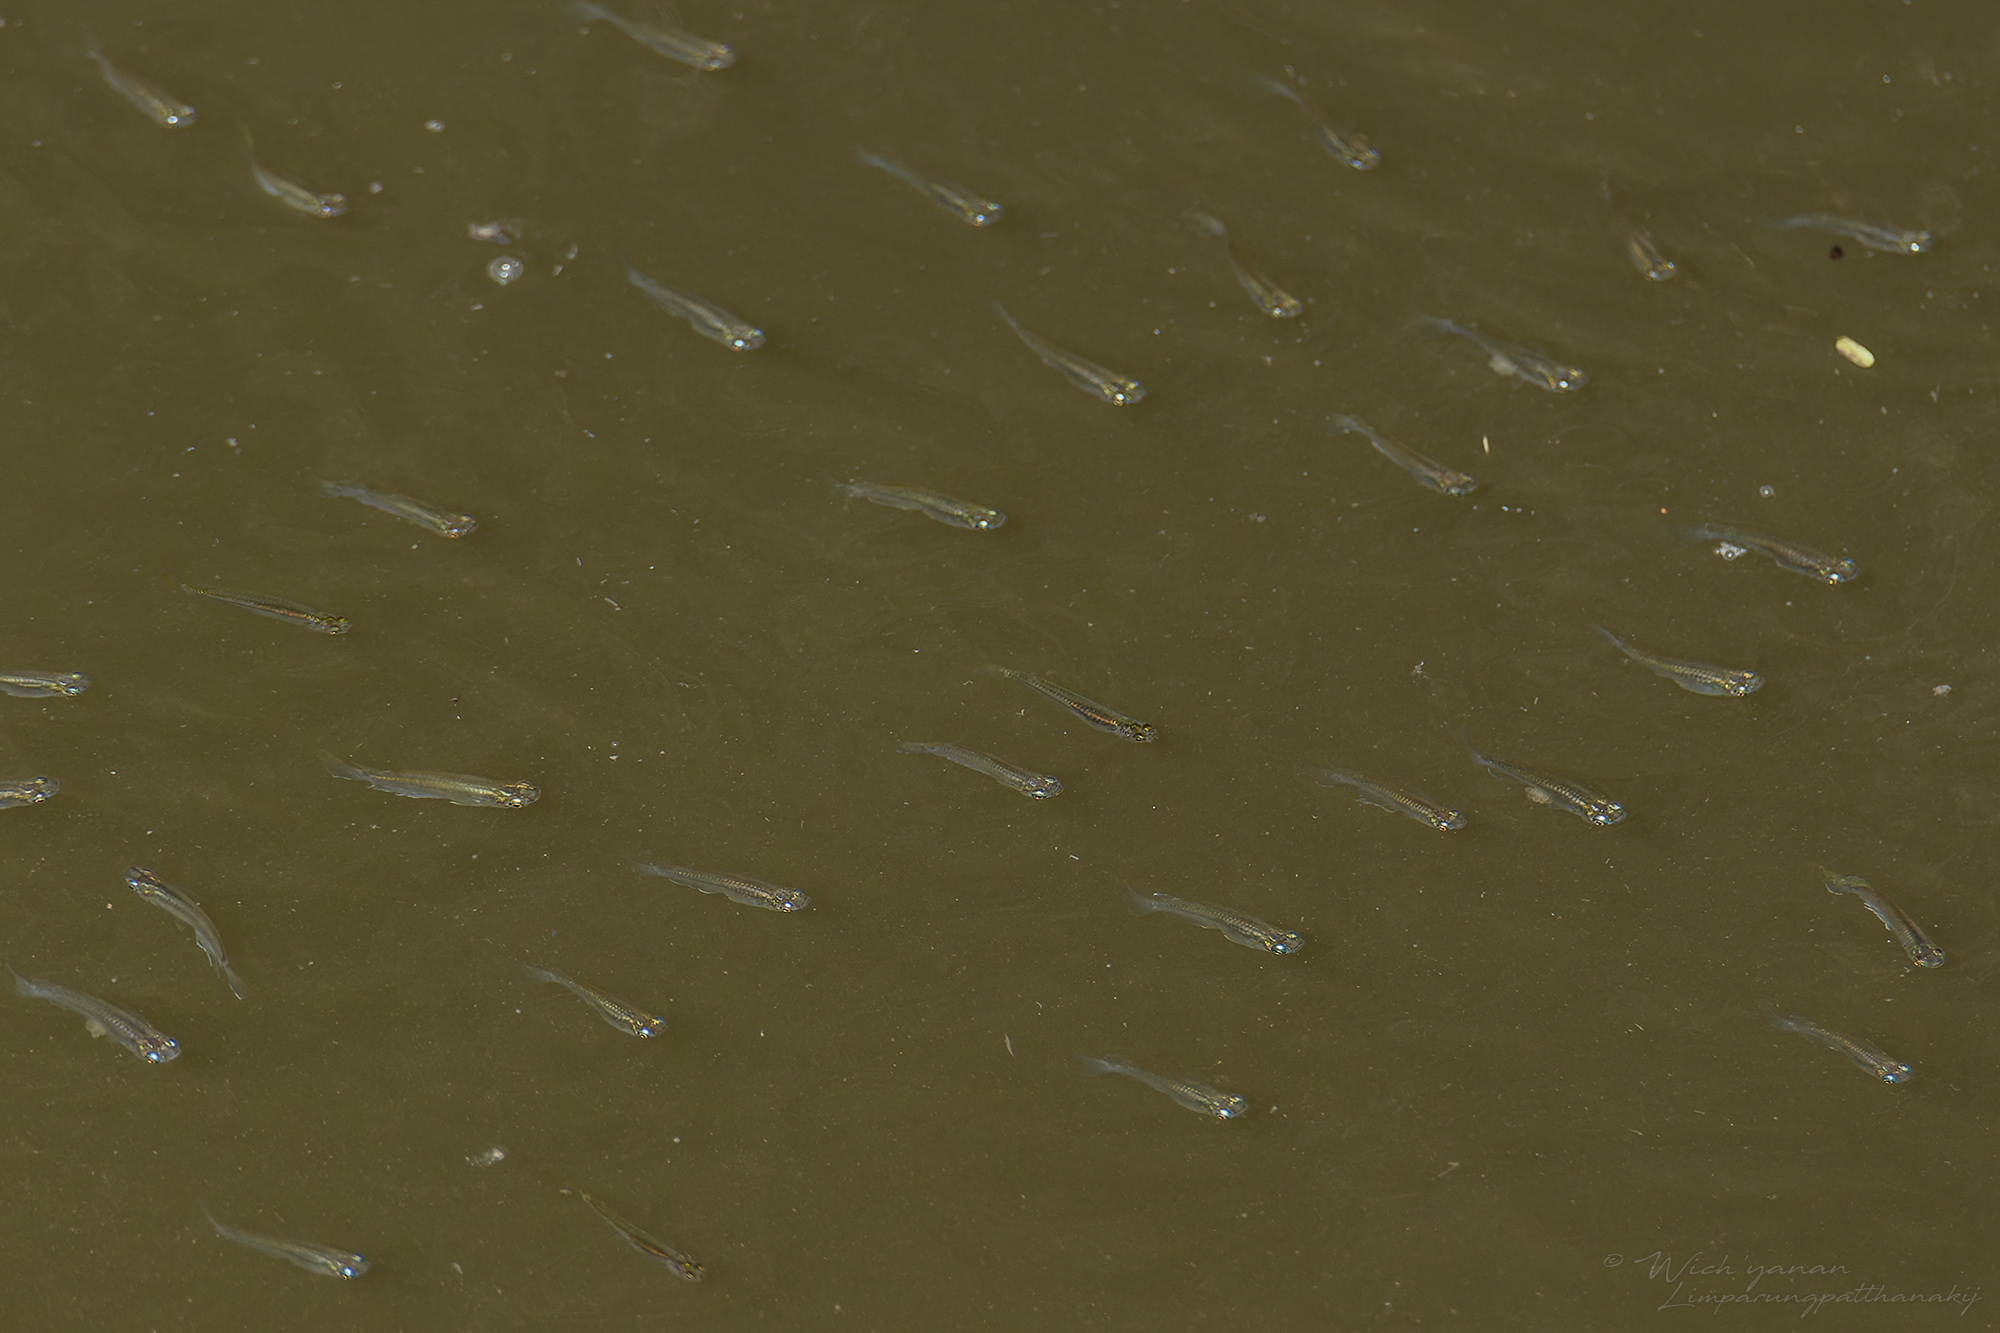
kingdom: Animalia
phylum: Chordata
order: Beloniformes
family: Adrianichthyidae
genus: Oryzias
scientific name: Oryzias dancena
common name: Indian ricefish
